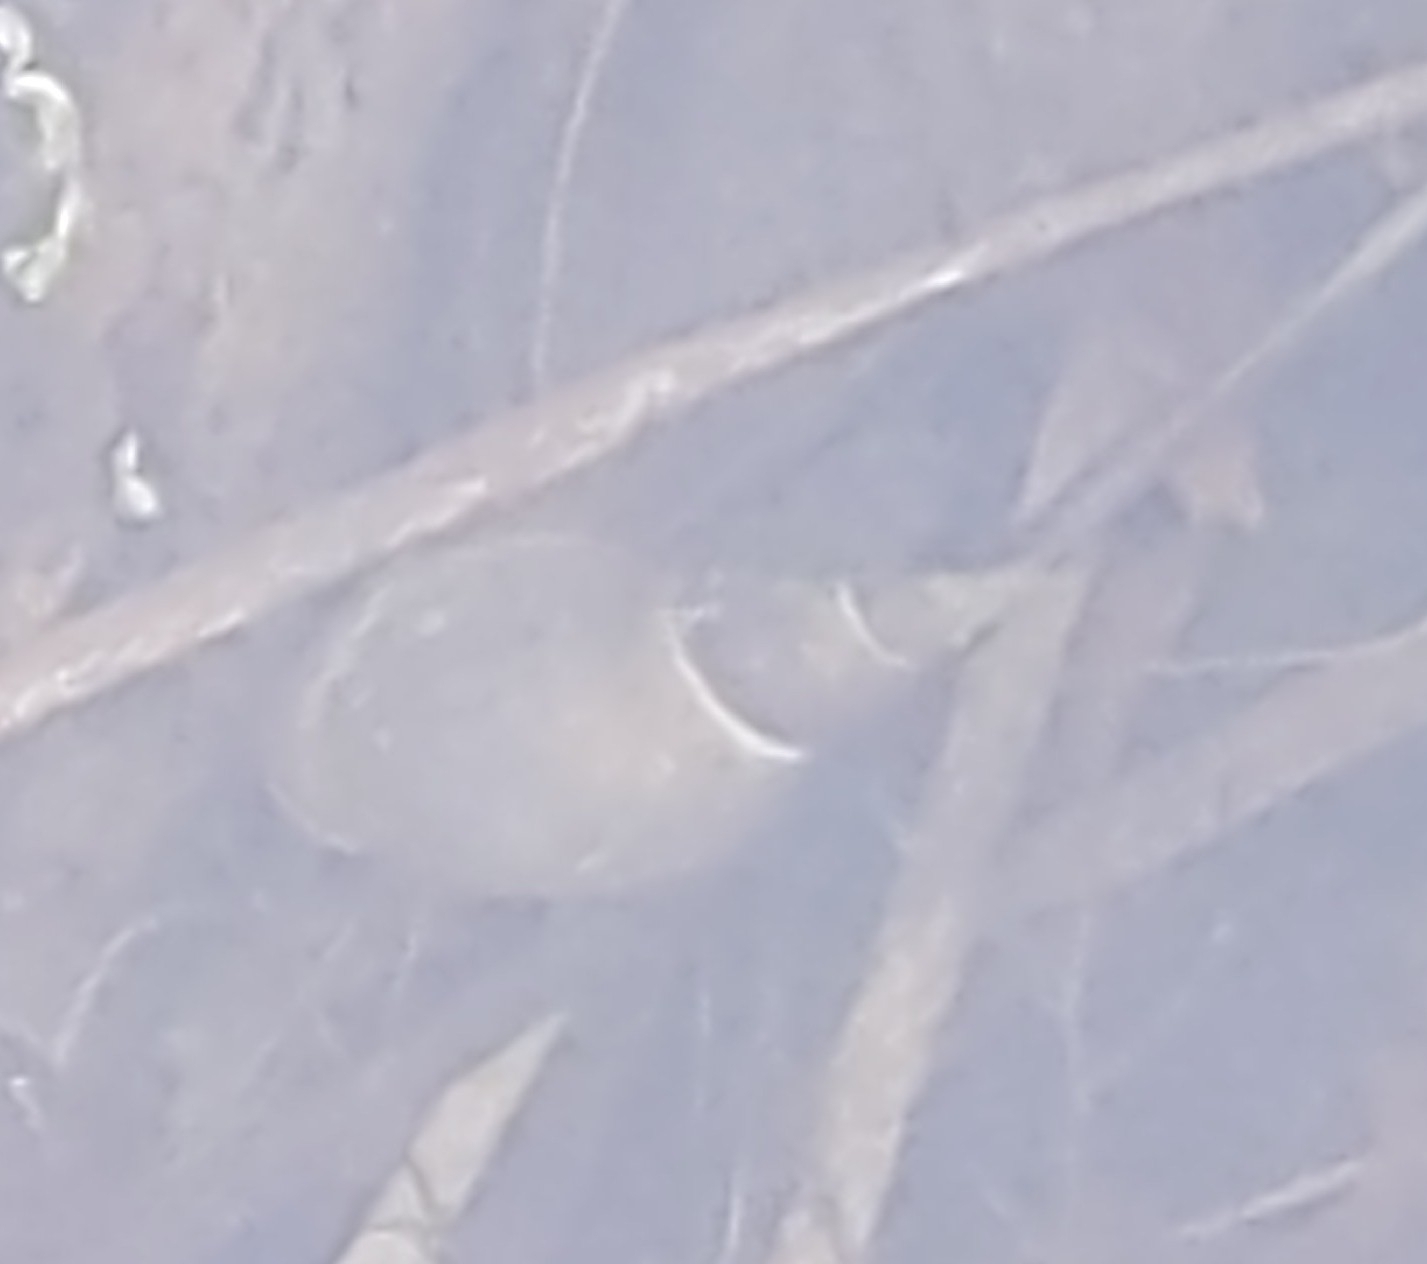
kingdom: Animalia
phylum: Mollusca
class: Gastropoda
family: Lymnaeidae
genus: Lymnaea
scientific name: Lymnaea stagnalis
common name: Great pond snail
